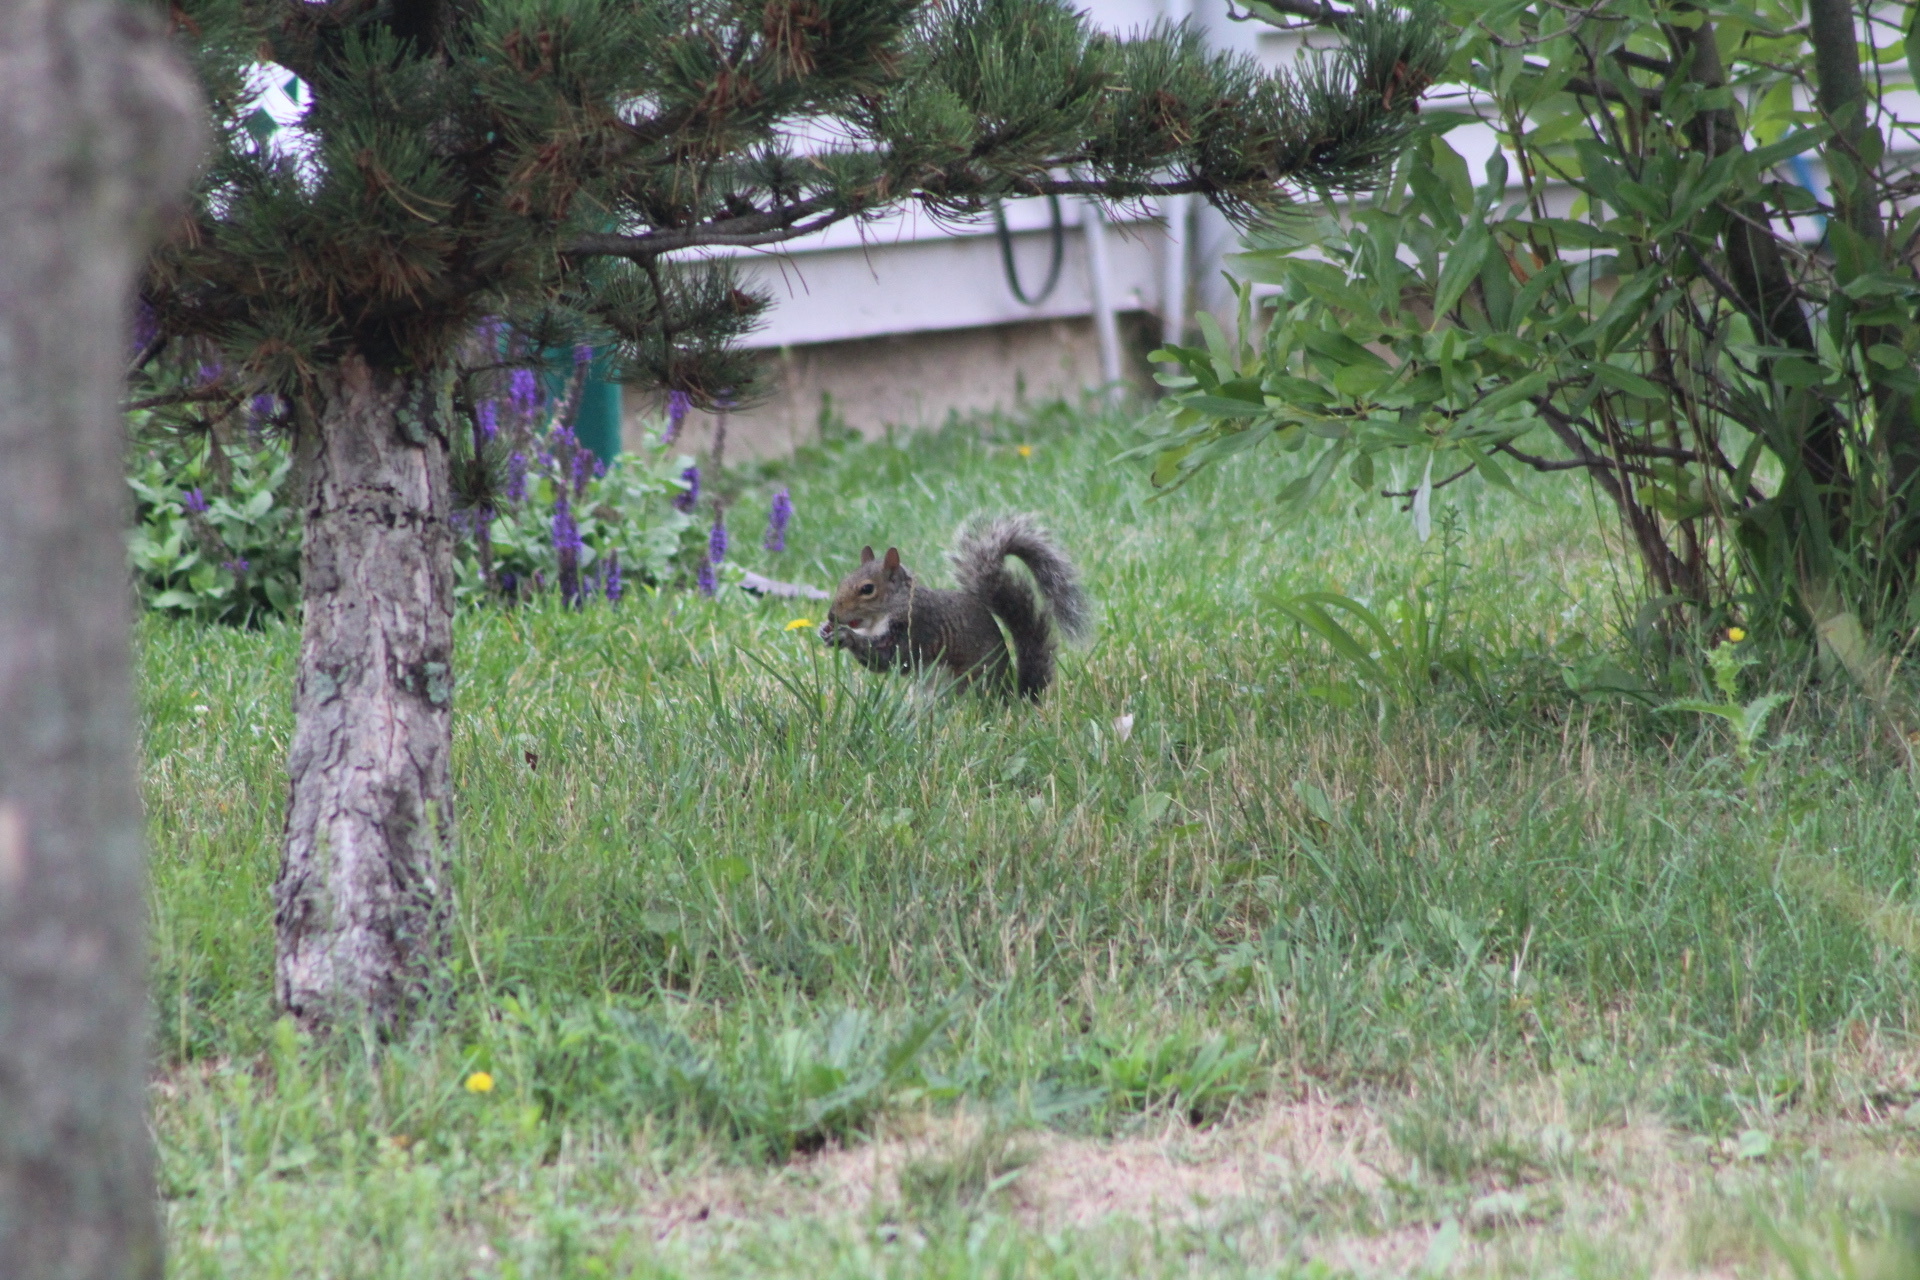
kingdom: Animalia
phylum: Chordata
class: Mammalia
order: Rodentia
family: Sciuridae
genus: Sciurus
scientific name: Sciurus carolinensis
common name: Eastern gray squirrel
